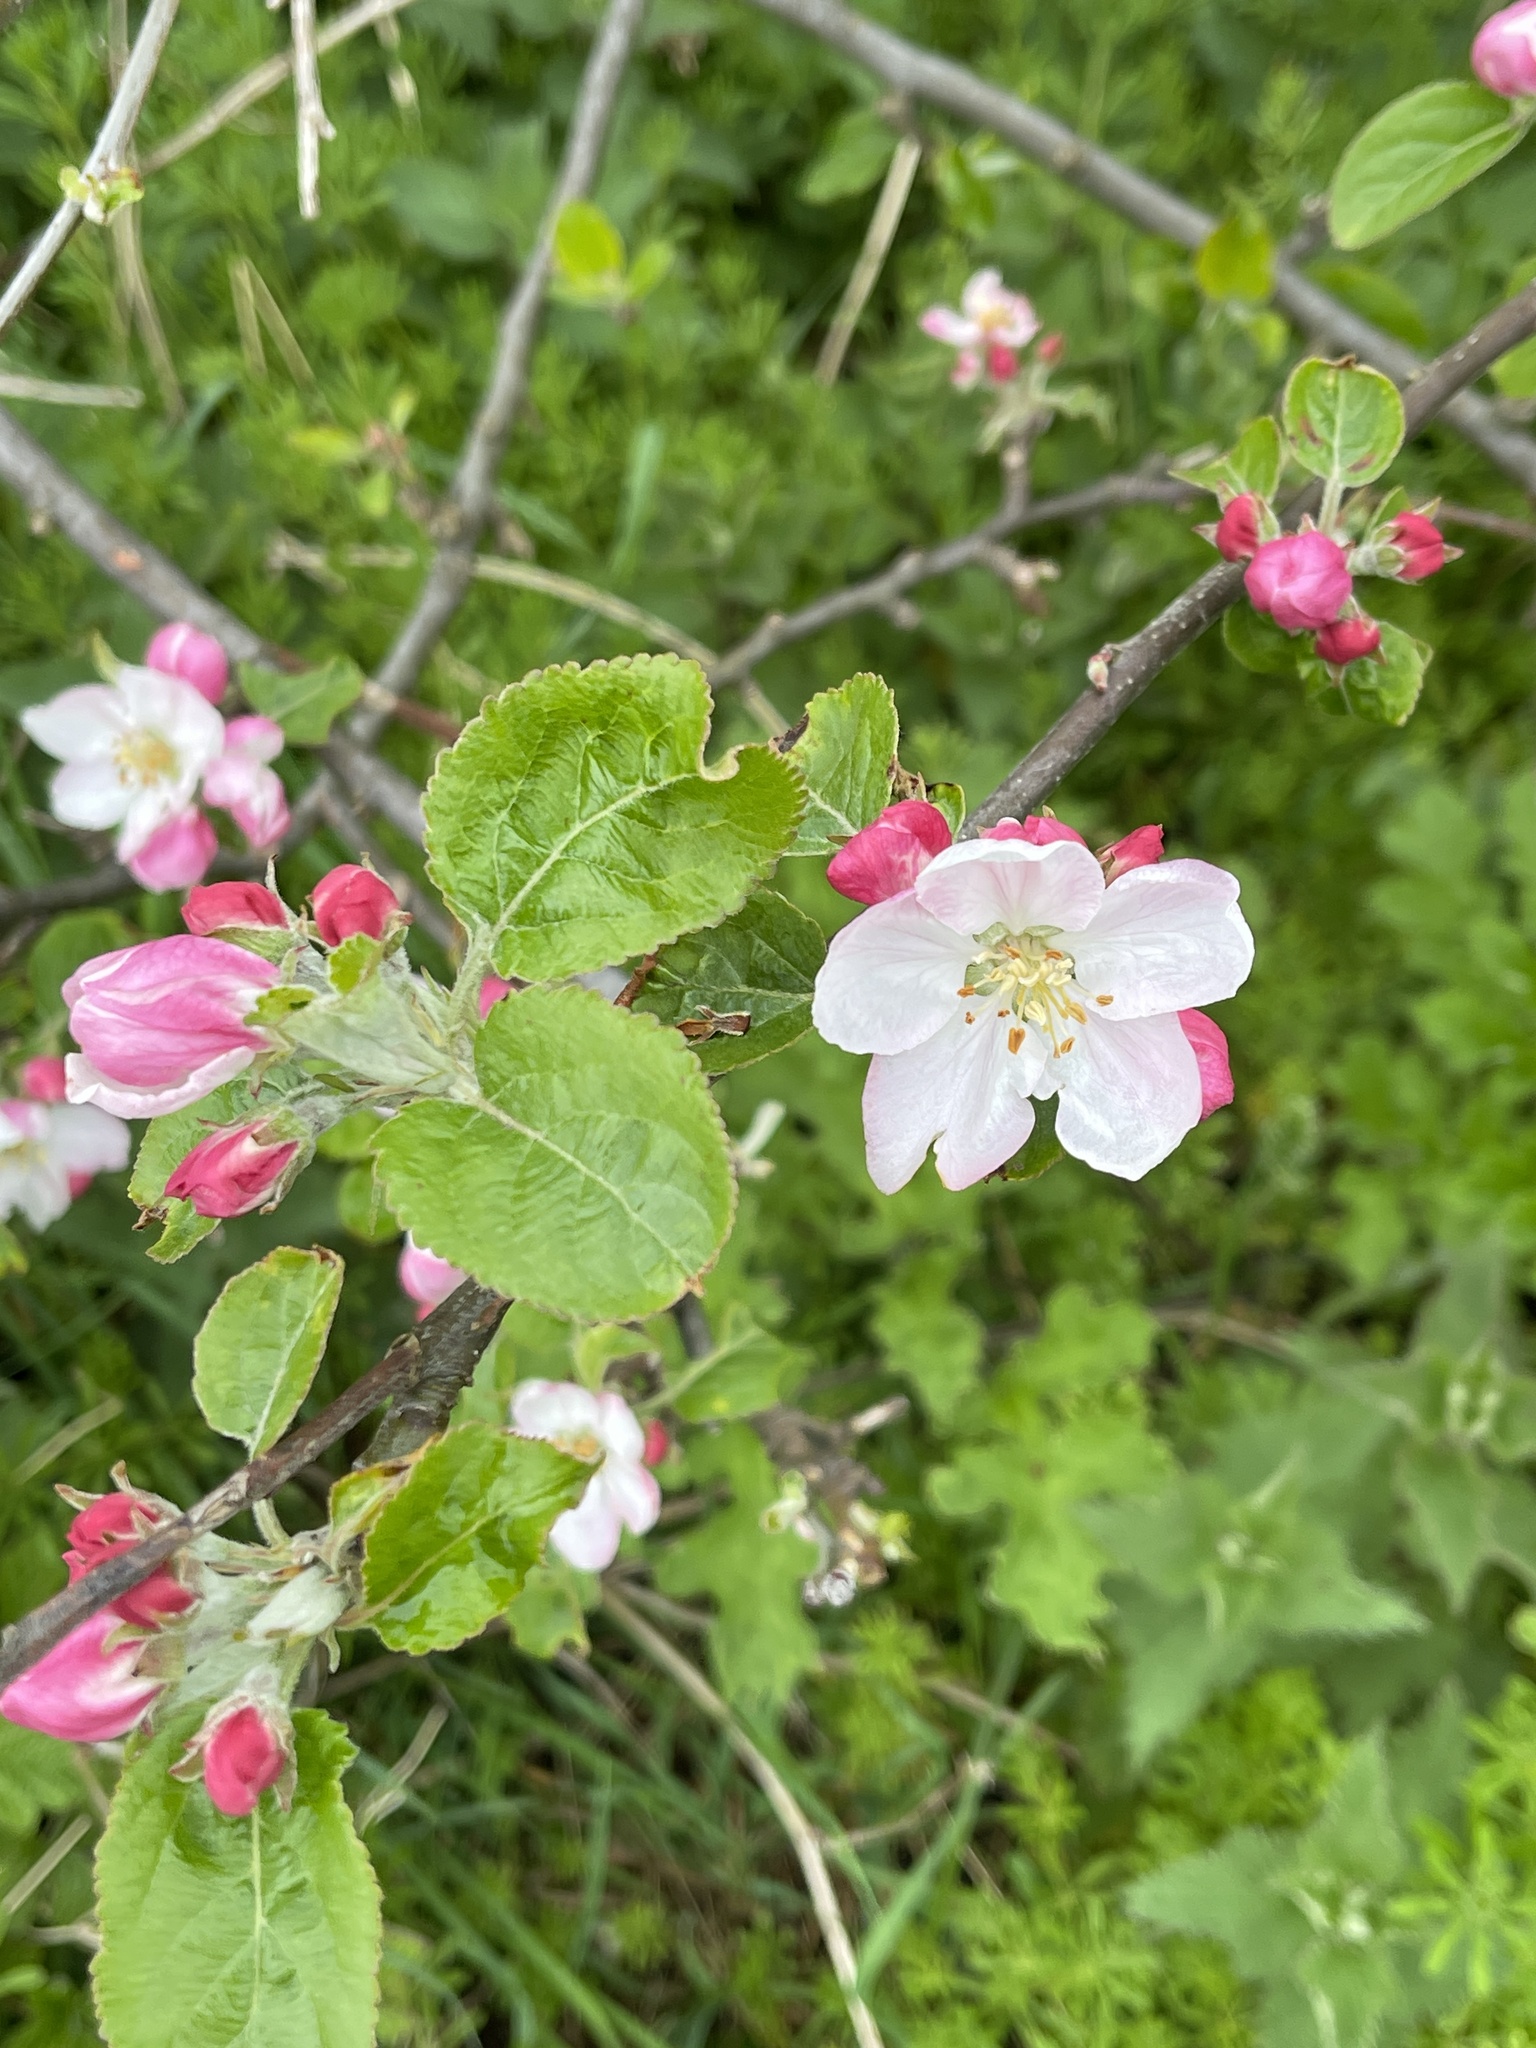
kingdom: Plantae
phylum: Tracheophyta
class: Magnoliopsida
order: Rosales
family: Rosaceae
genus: Malus
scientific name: Malus domestica
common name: Apple
